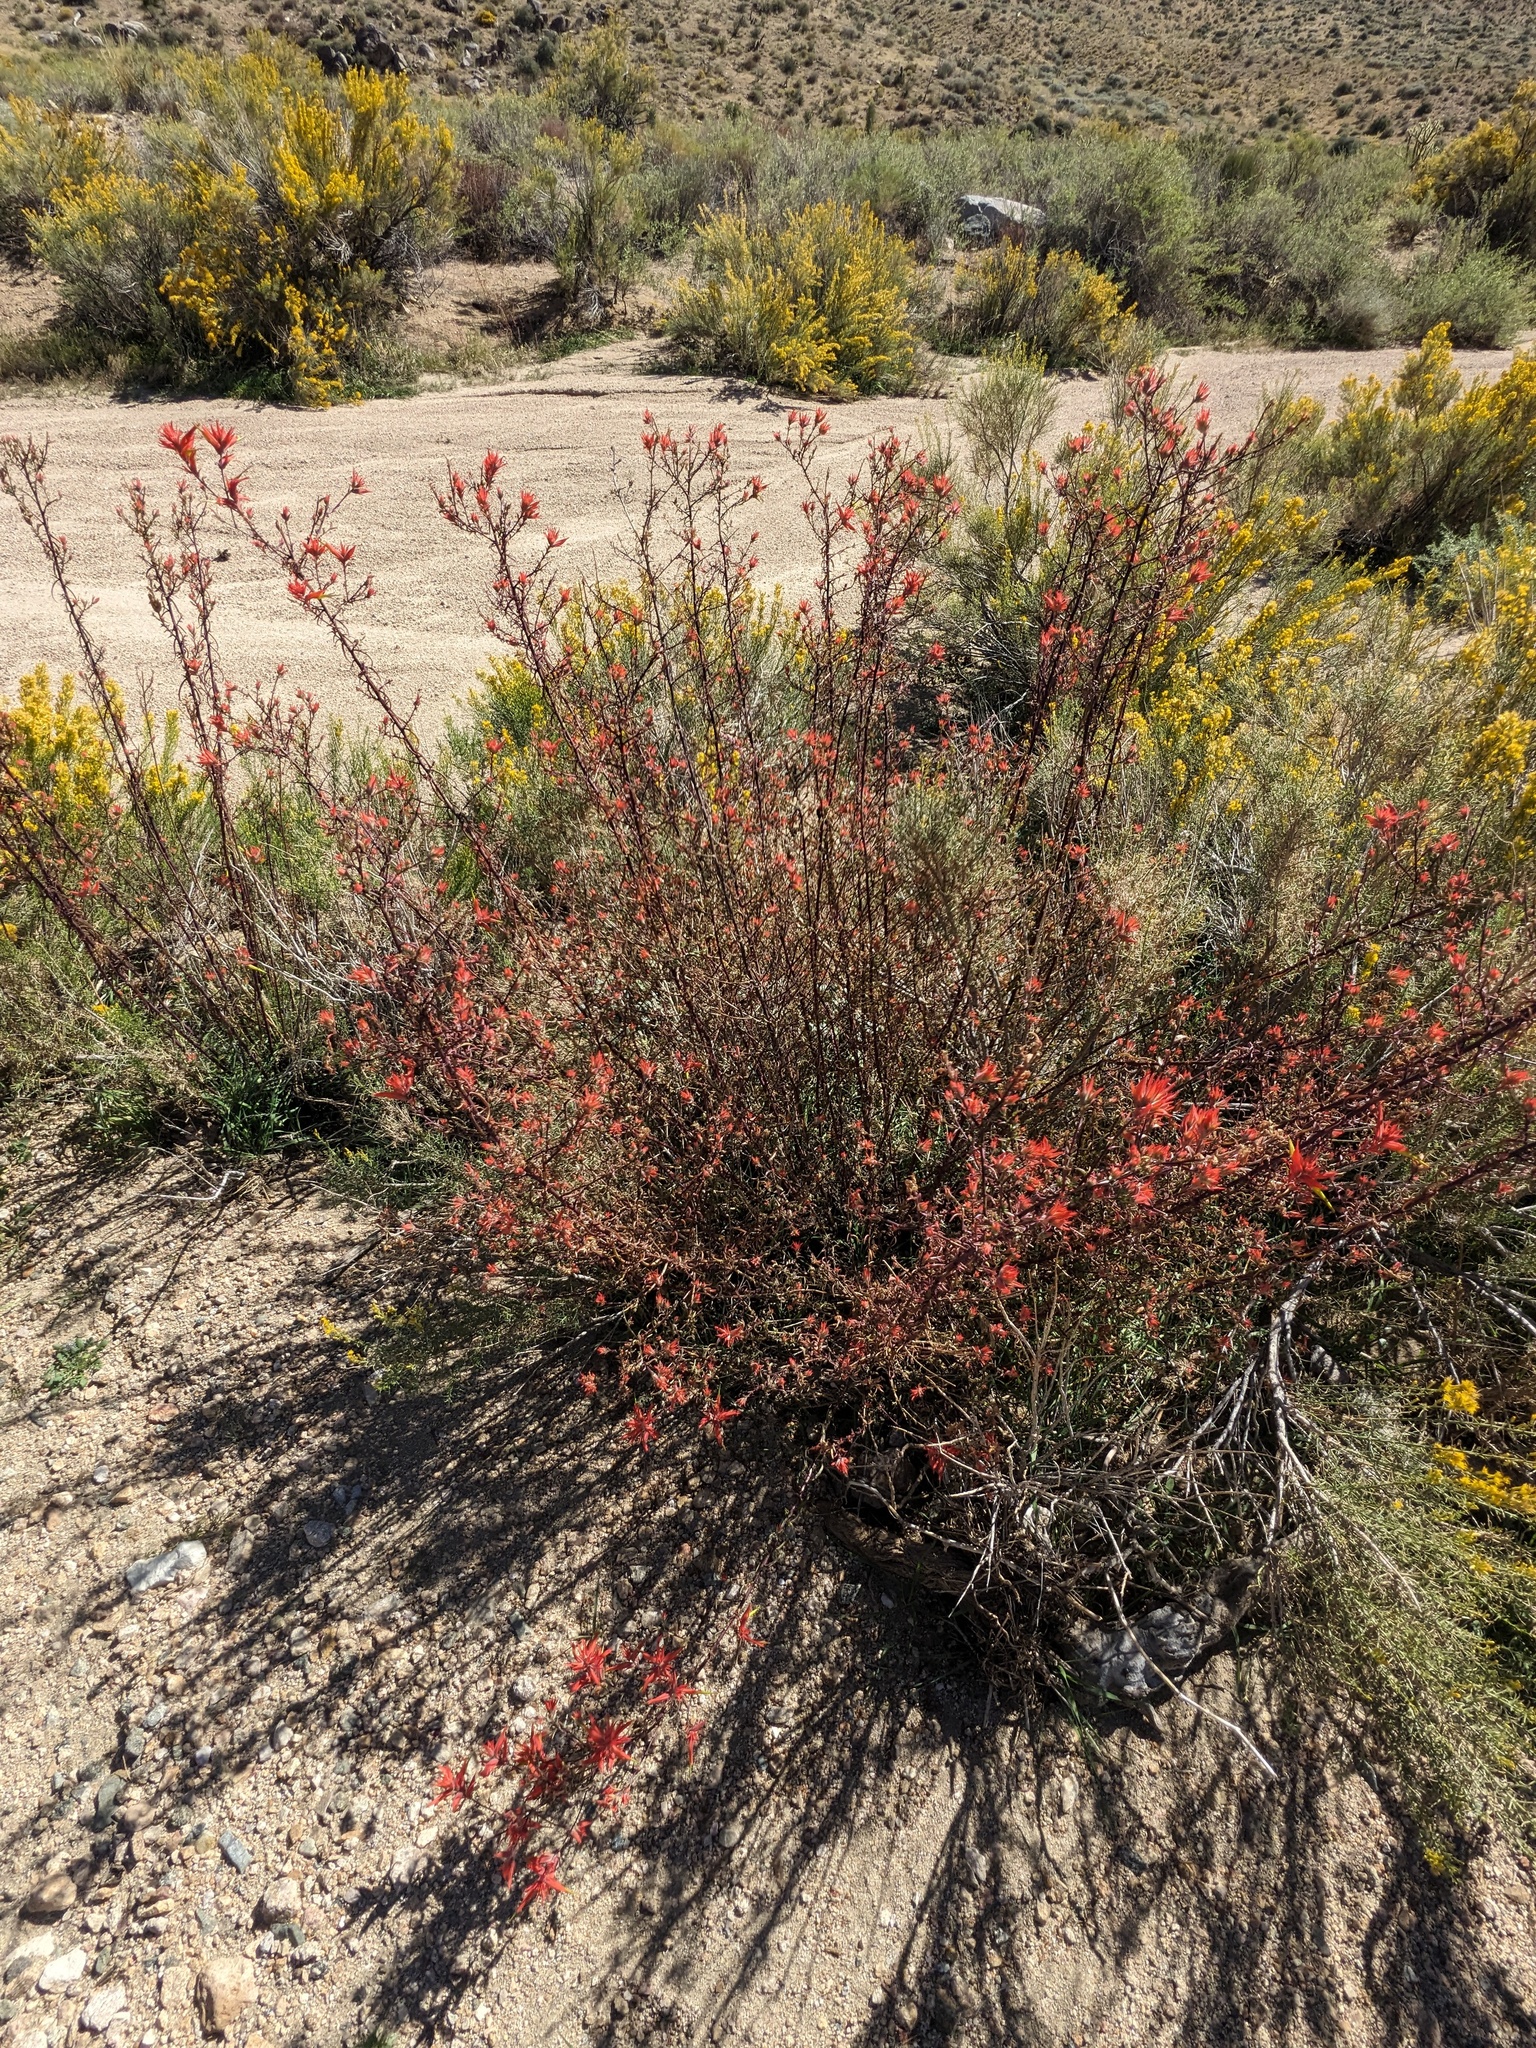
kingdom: Plantae
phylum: Tracheophyta
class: Magnoliopsida
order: Lamiales
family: Orobanchaceae
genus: Castilleja
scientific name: Castilleja linariifolia
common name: Wyoming paintbrush
